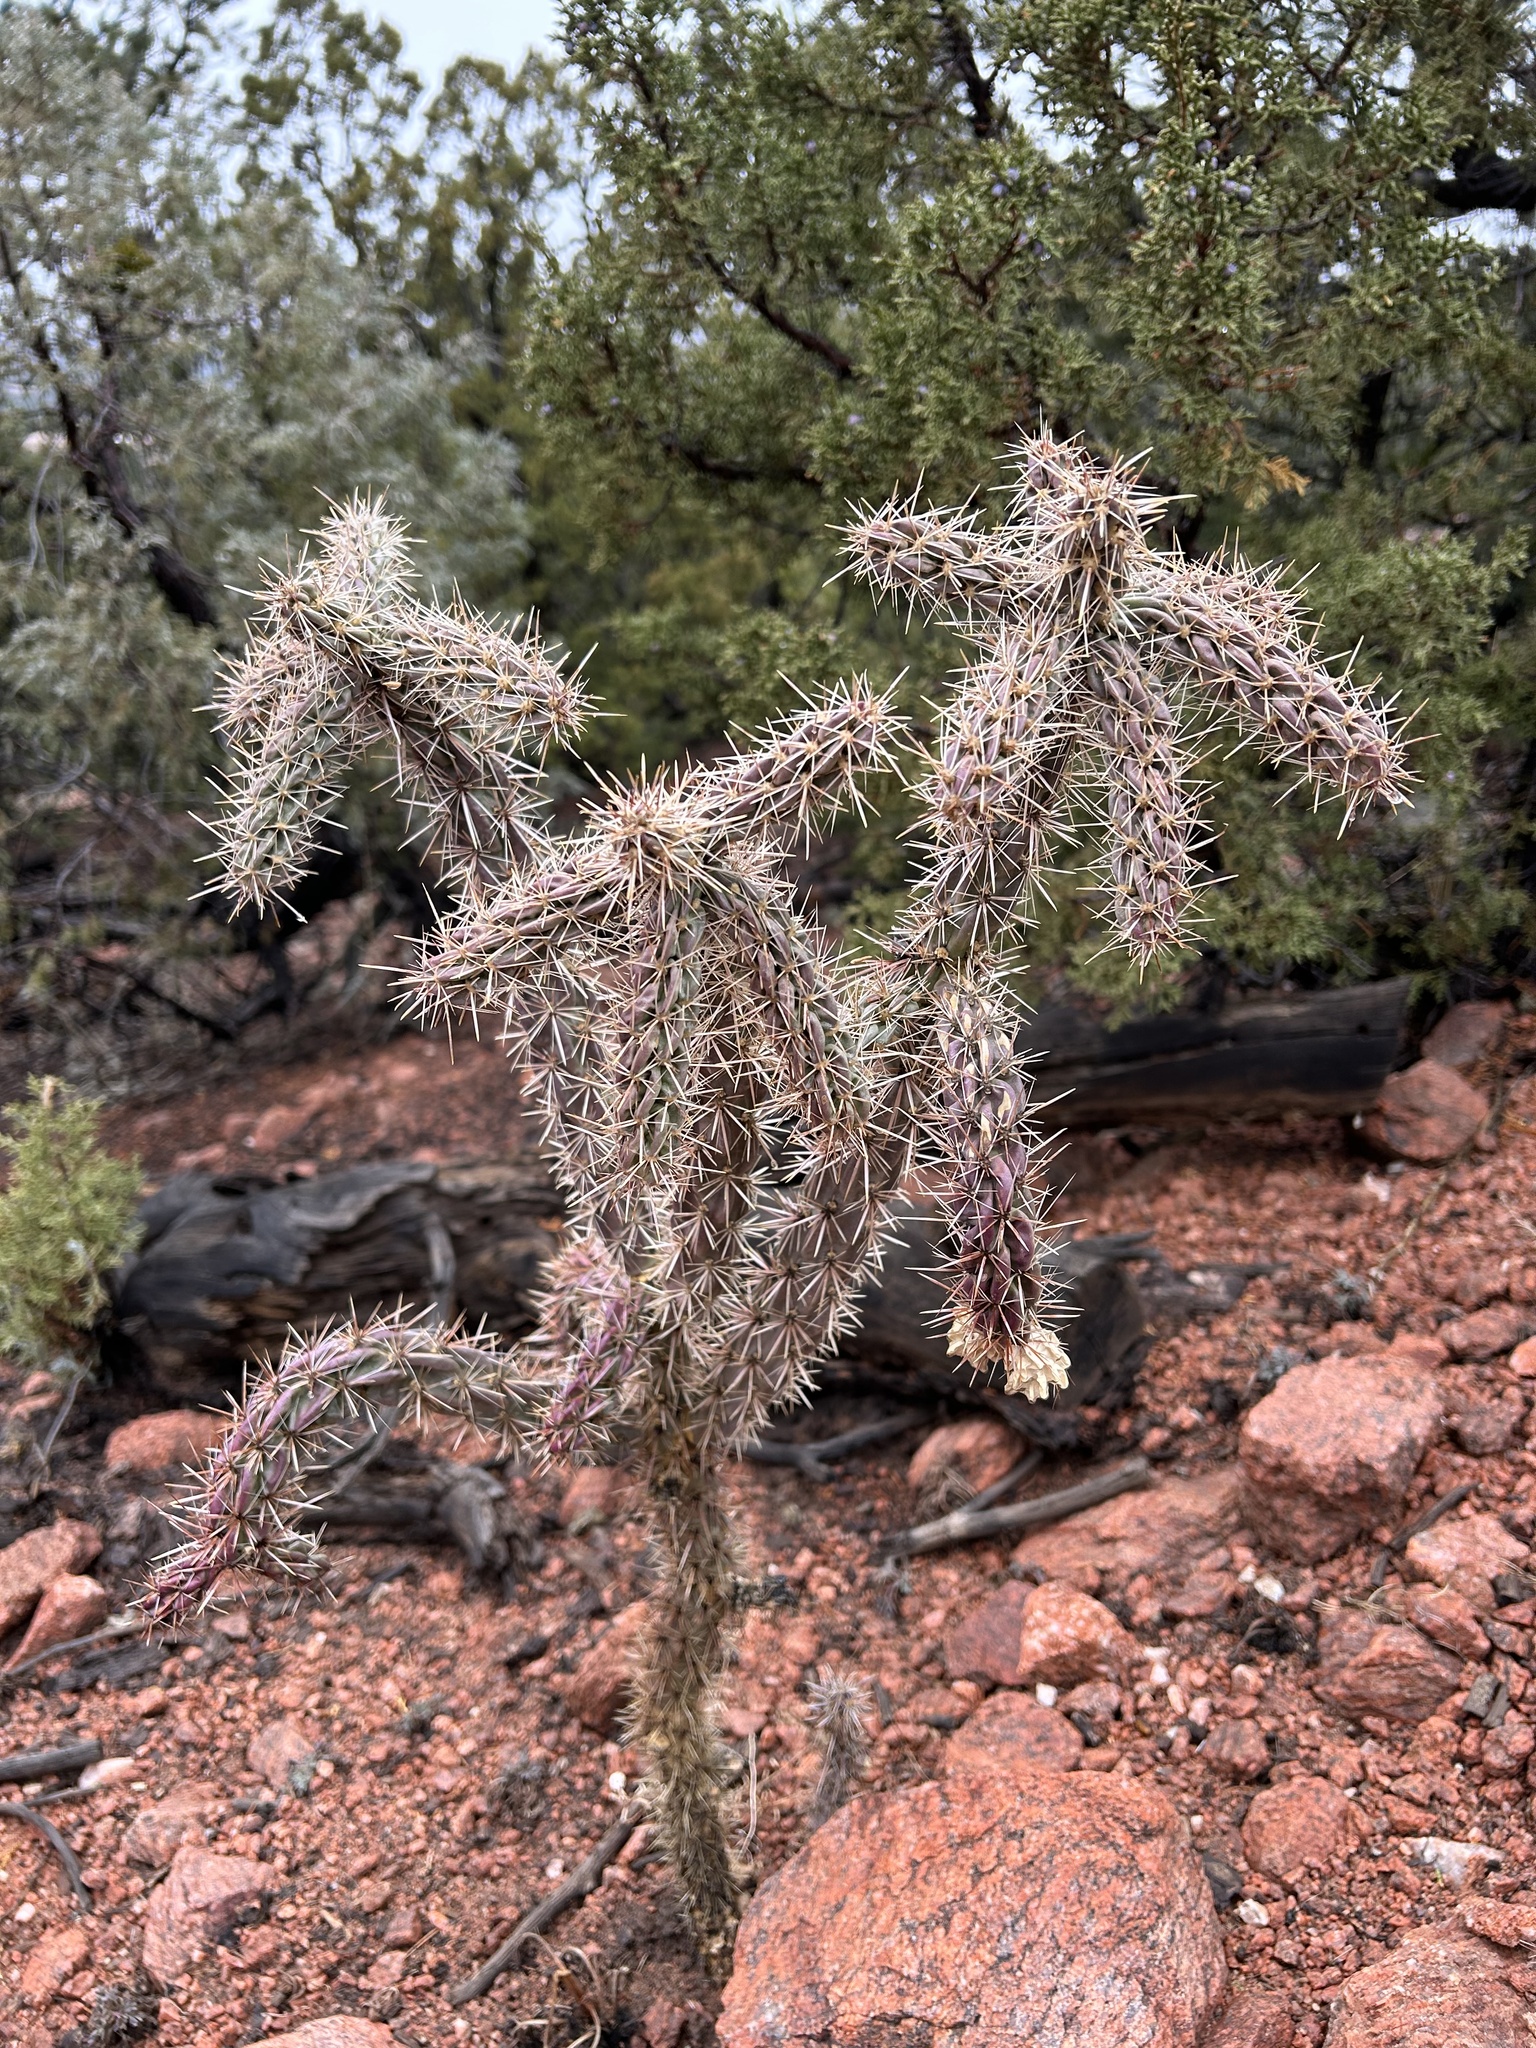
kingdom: Plantae
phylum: Tracheophyta
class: Magnoliopsida
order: Caryophyllales
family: Cactaceae
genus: Cylindropuntia
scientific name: Cylindropuntia imbricata
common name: Candelabrum cactus
